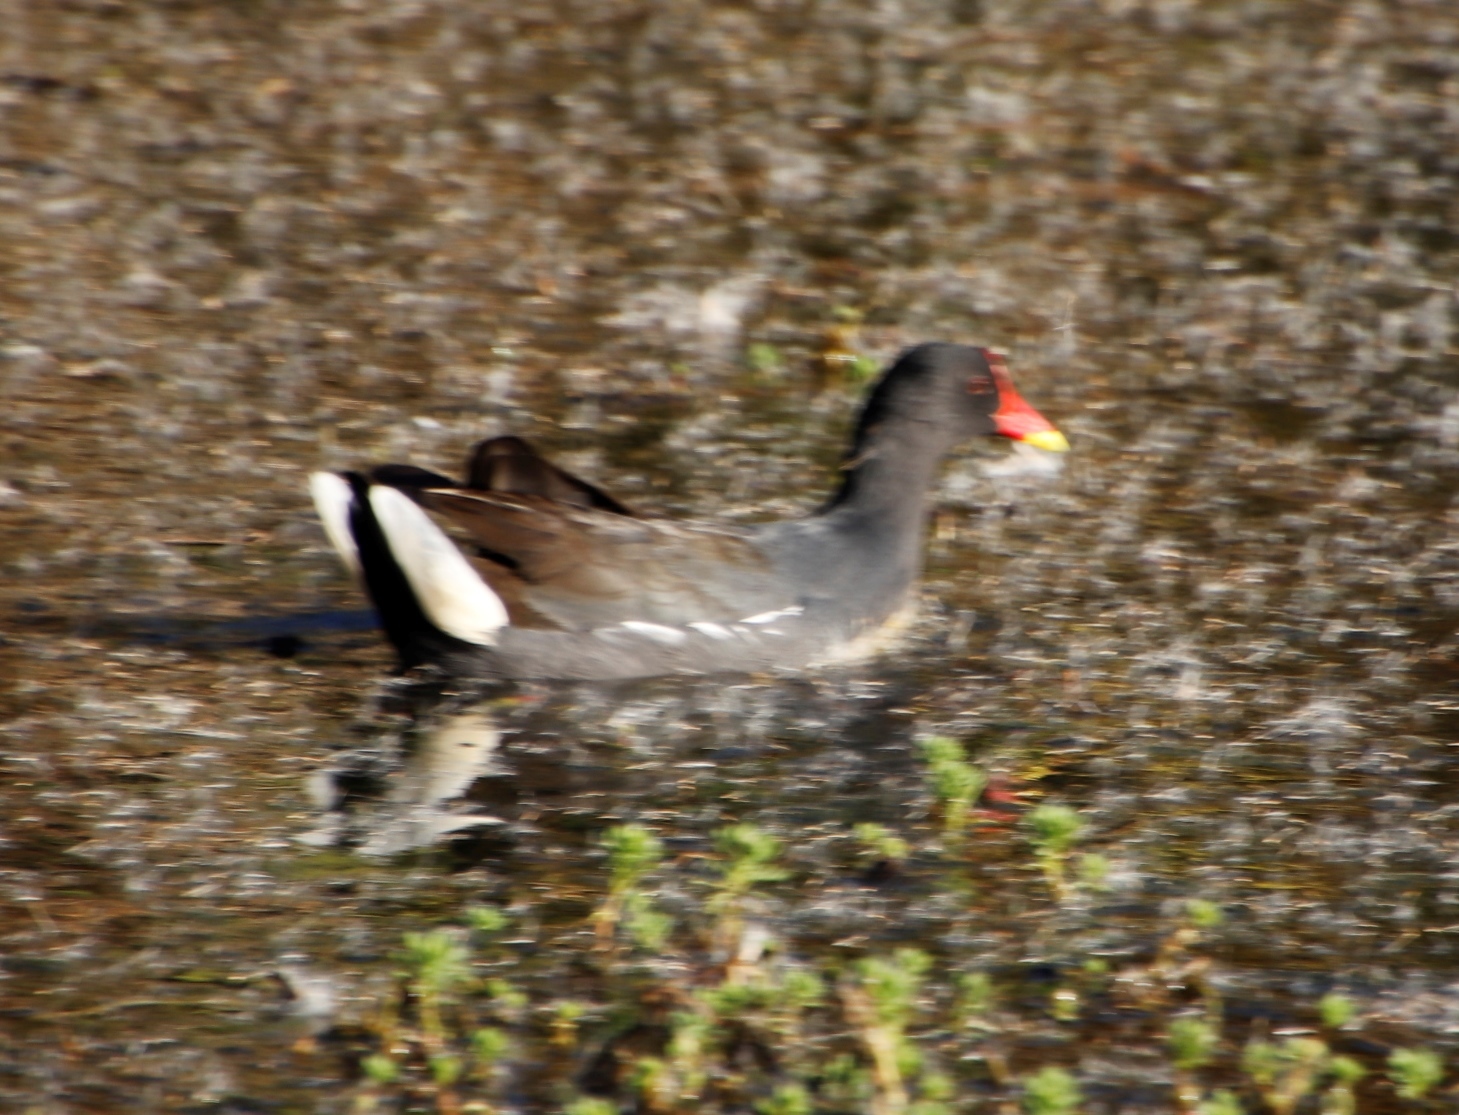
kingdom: Animalia
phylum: Chordata
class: Aves
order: Gruiformes
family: Rallidae
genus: Gallinula
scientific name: Gallinula chloropus
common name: Common moorhen
